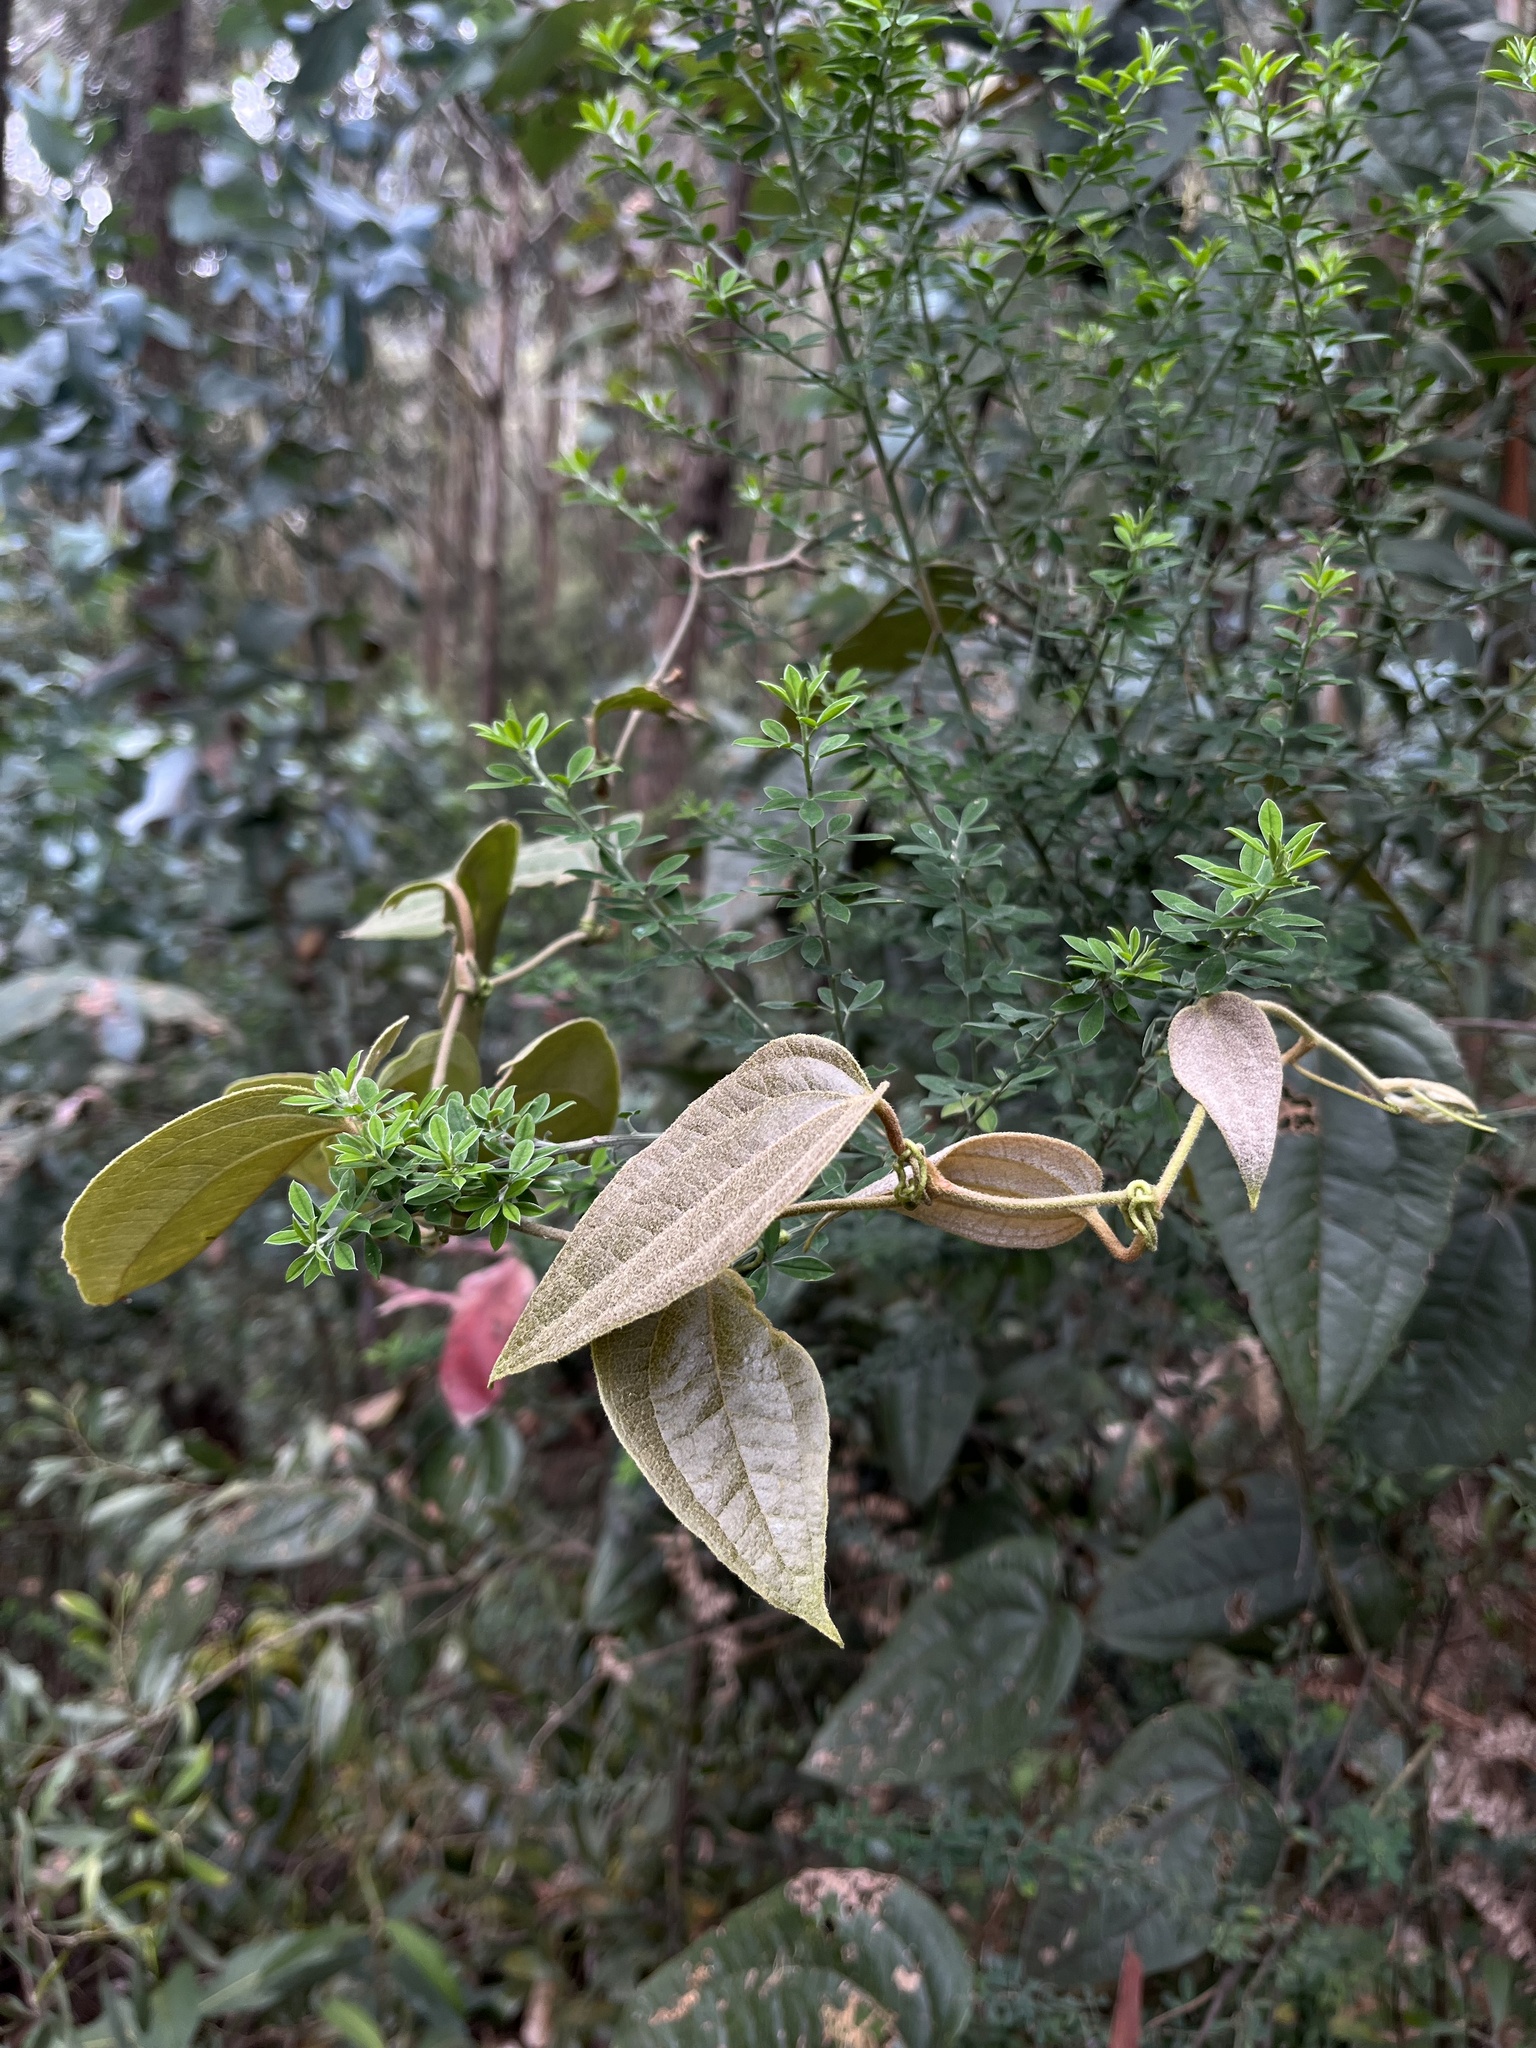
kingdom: Plantae
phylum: Tracheophyta
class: Liliopsida
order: Liliales
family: Smilacaceae
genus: Smilax
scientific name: Smilax tomentosa
